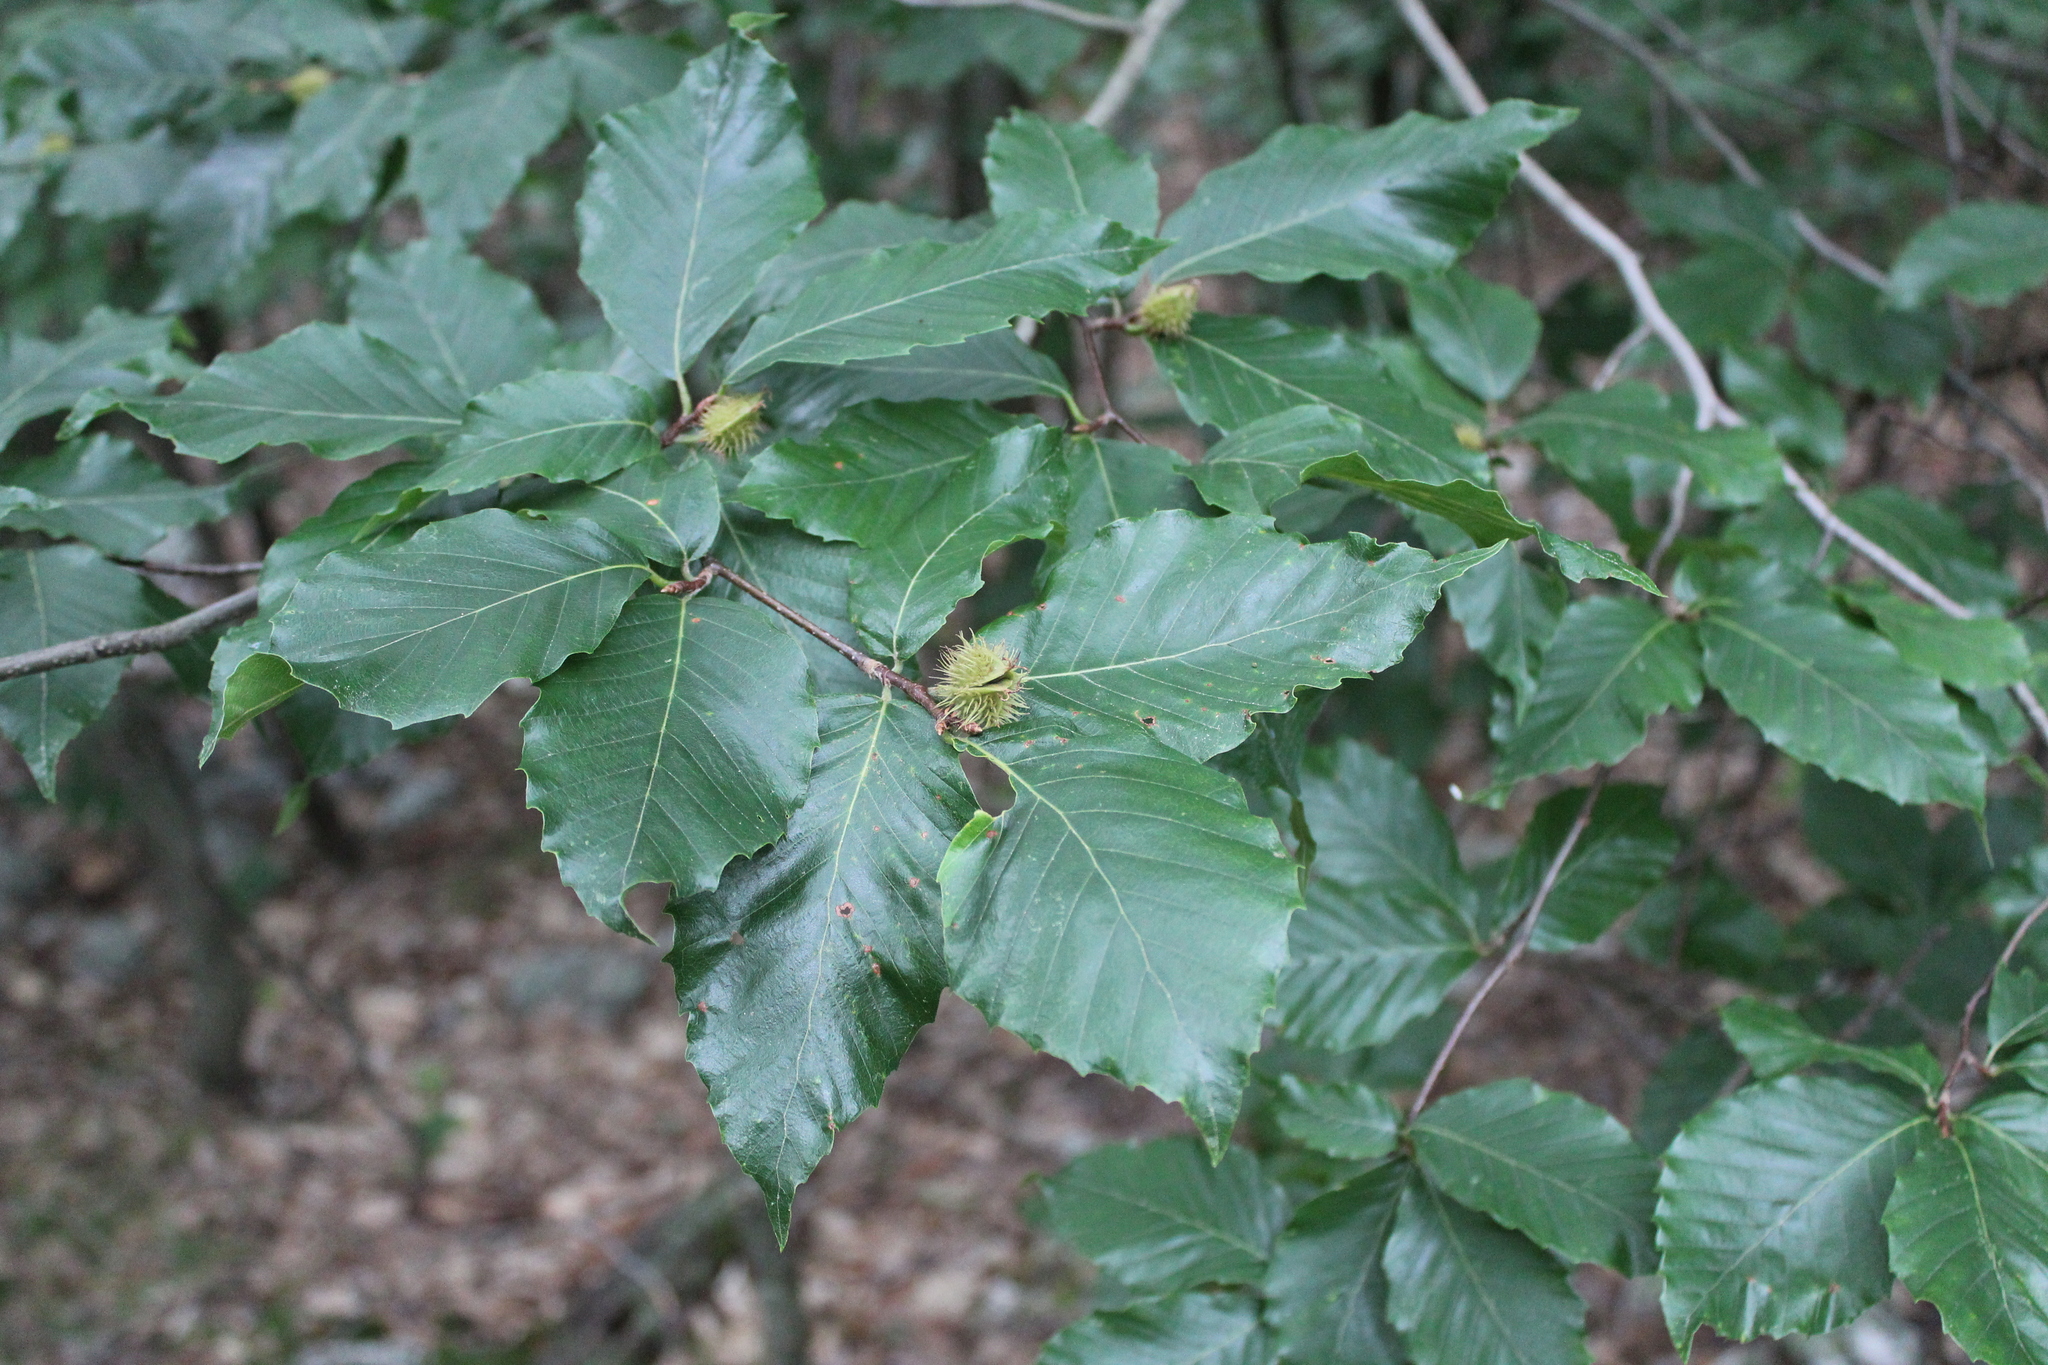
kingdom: Plantae
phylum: Tracheophyta
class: Magnoliopsida
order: Fagales
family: Fagaceae
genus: Fagus
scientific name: Fagus grandifolia
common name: American beech
